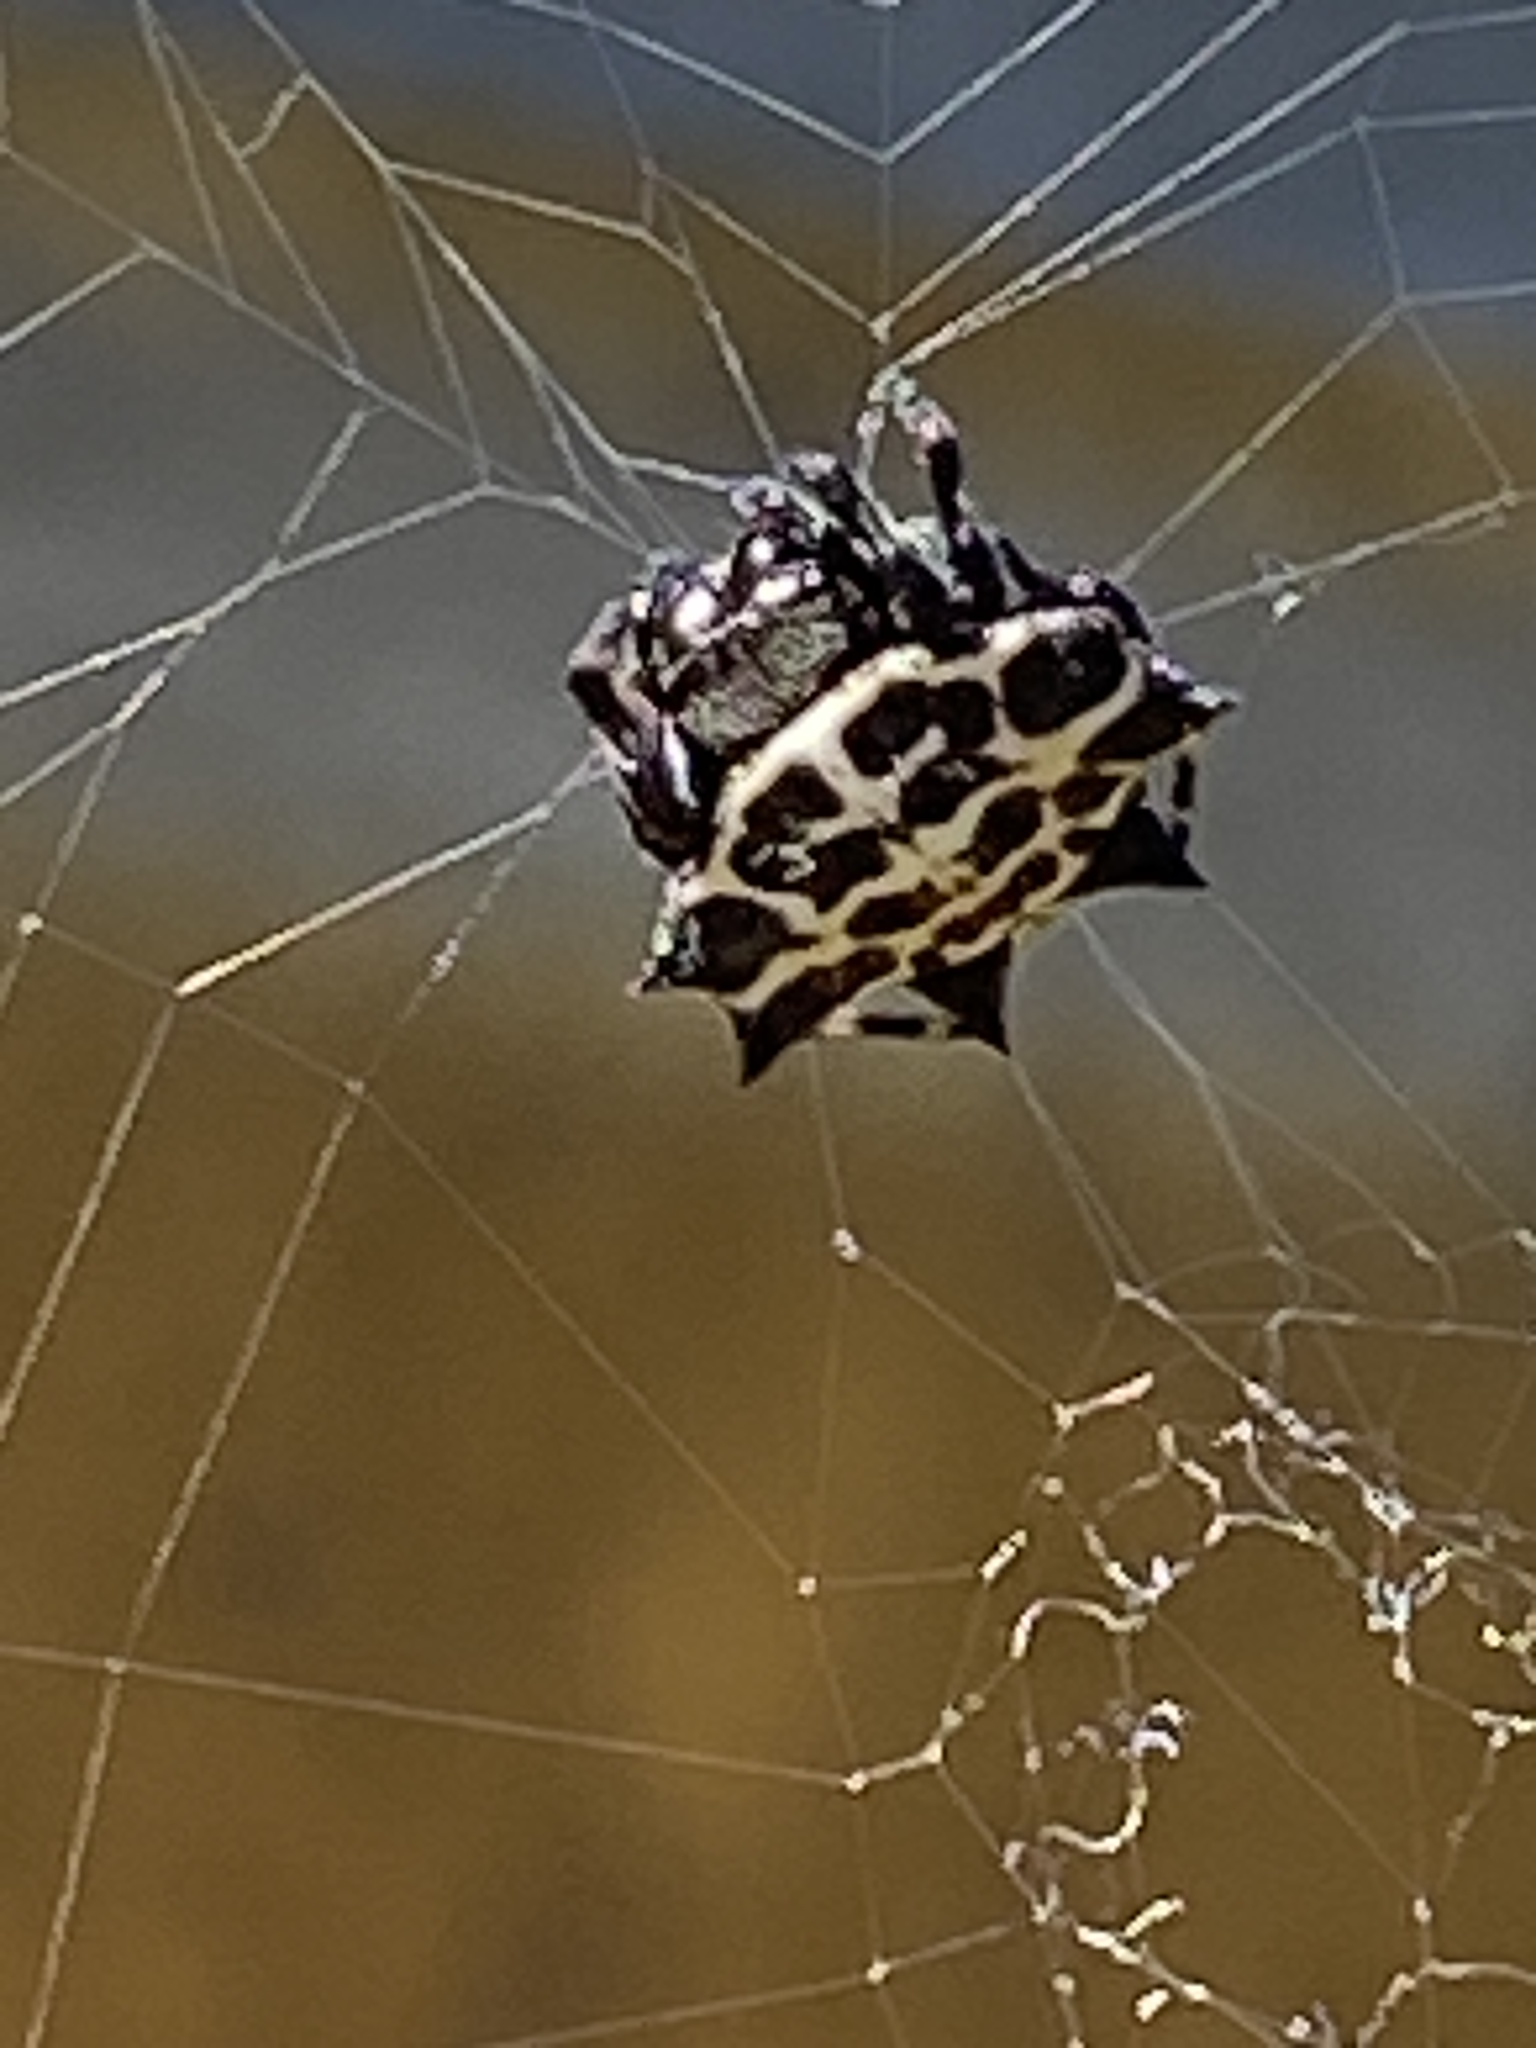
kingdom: Animalia
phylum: Arthropoda
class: Arachnida
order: Araneae
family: Araneidae
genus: Gasteracantha
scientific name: Gasteracantha cancriformis
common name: Orb weavers
